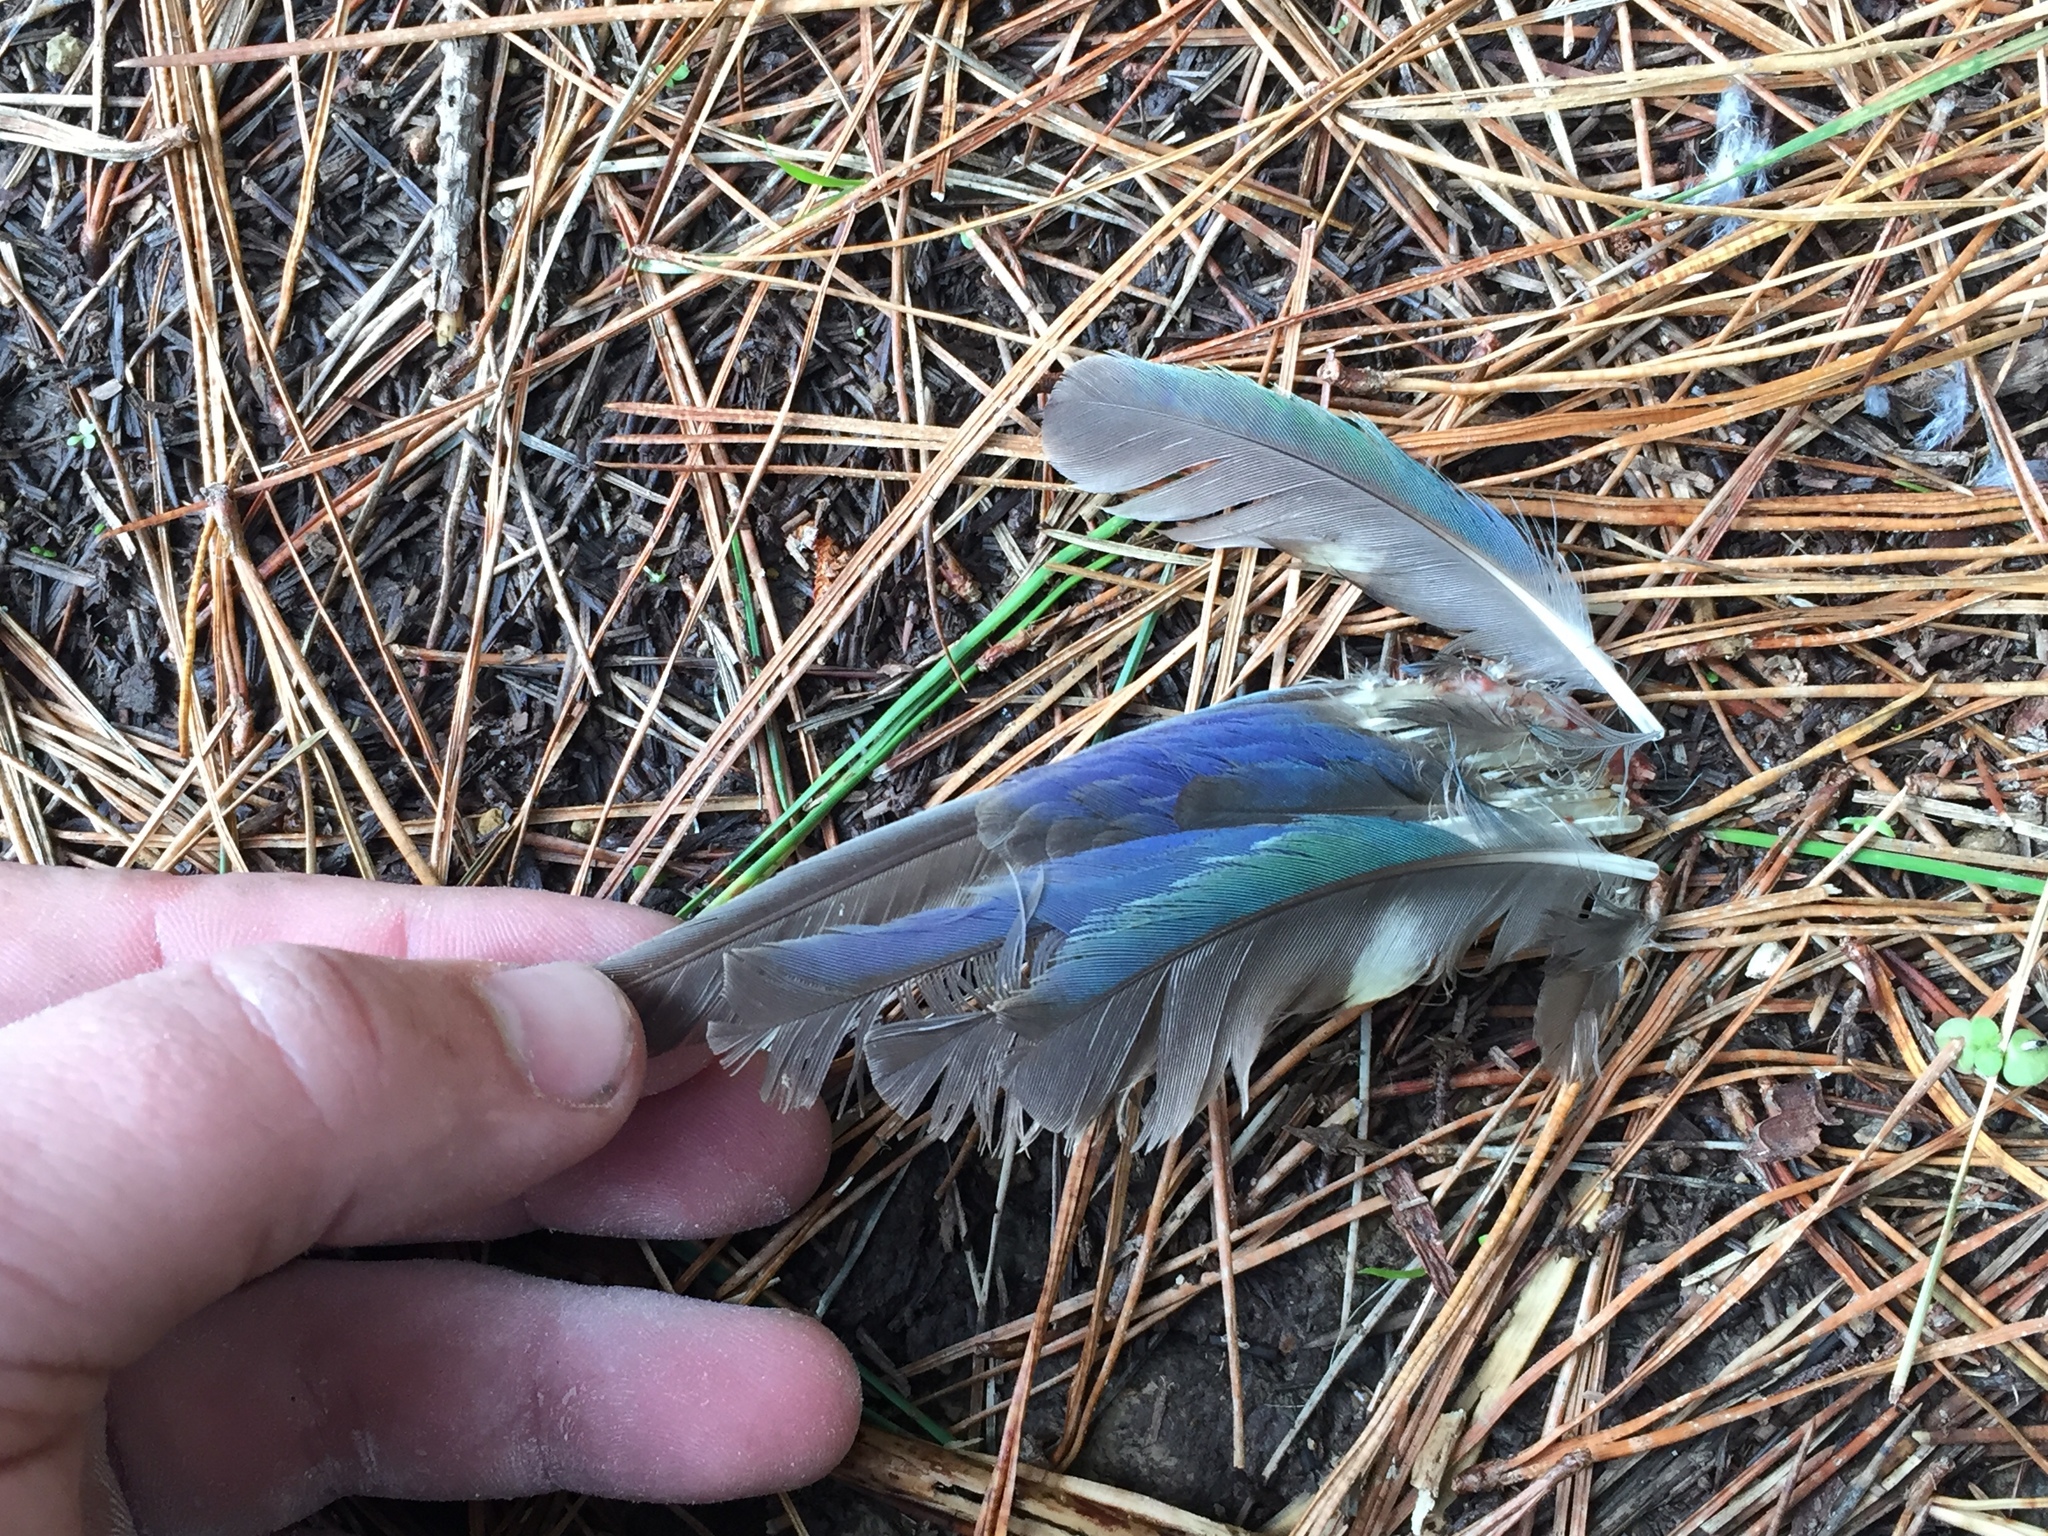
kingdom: Animalia
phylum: Chordata
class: Aves
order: Psittaciformes
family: Psittacidae
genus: Platycercus
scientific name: Platycercus eximius
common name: Eastern rosella
